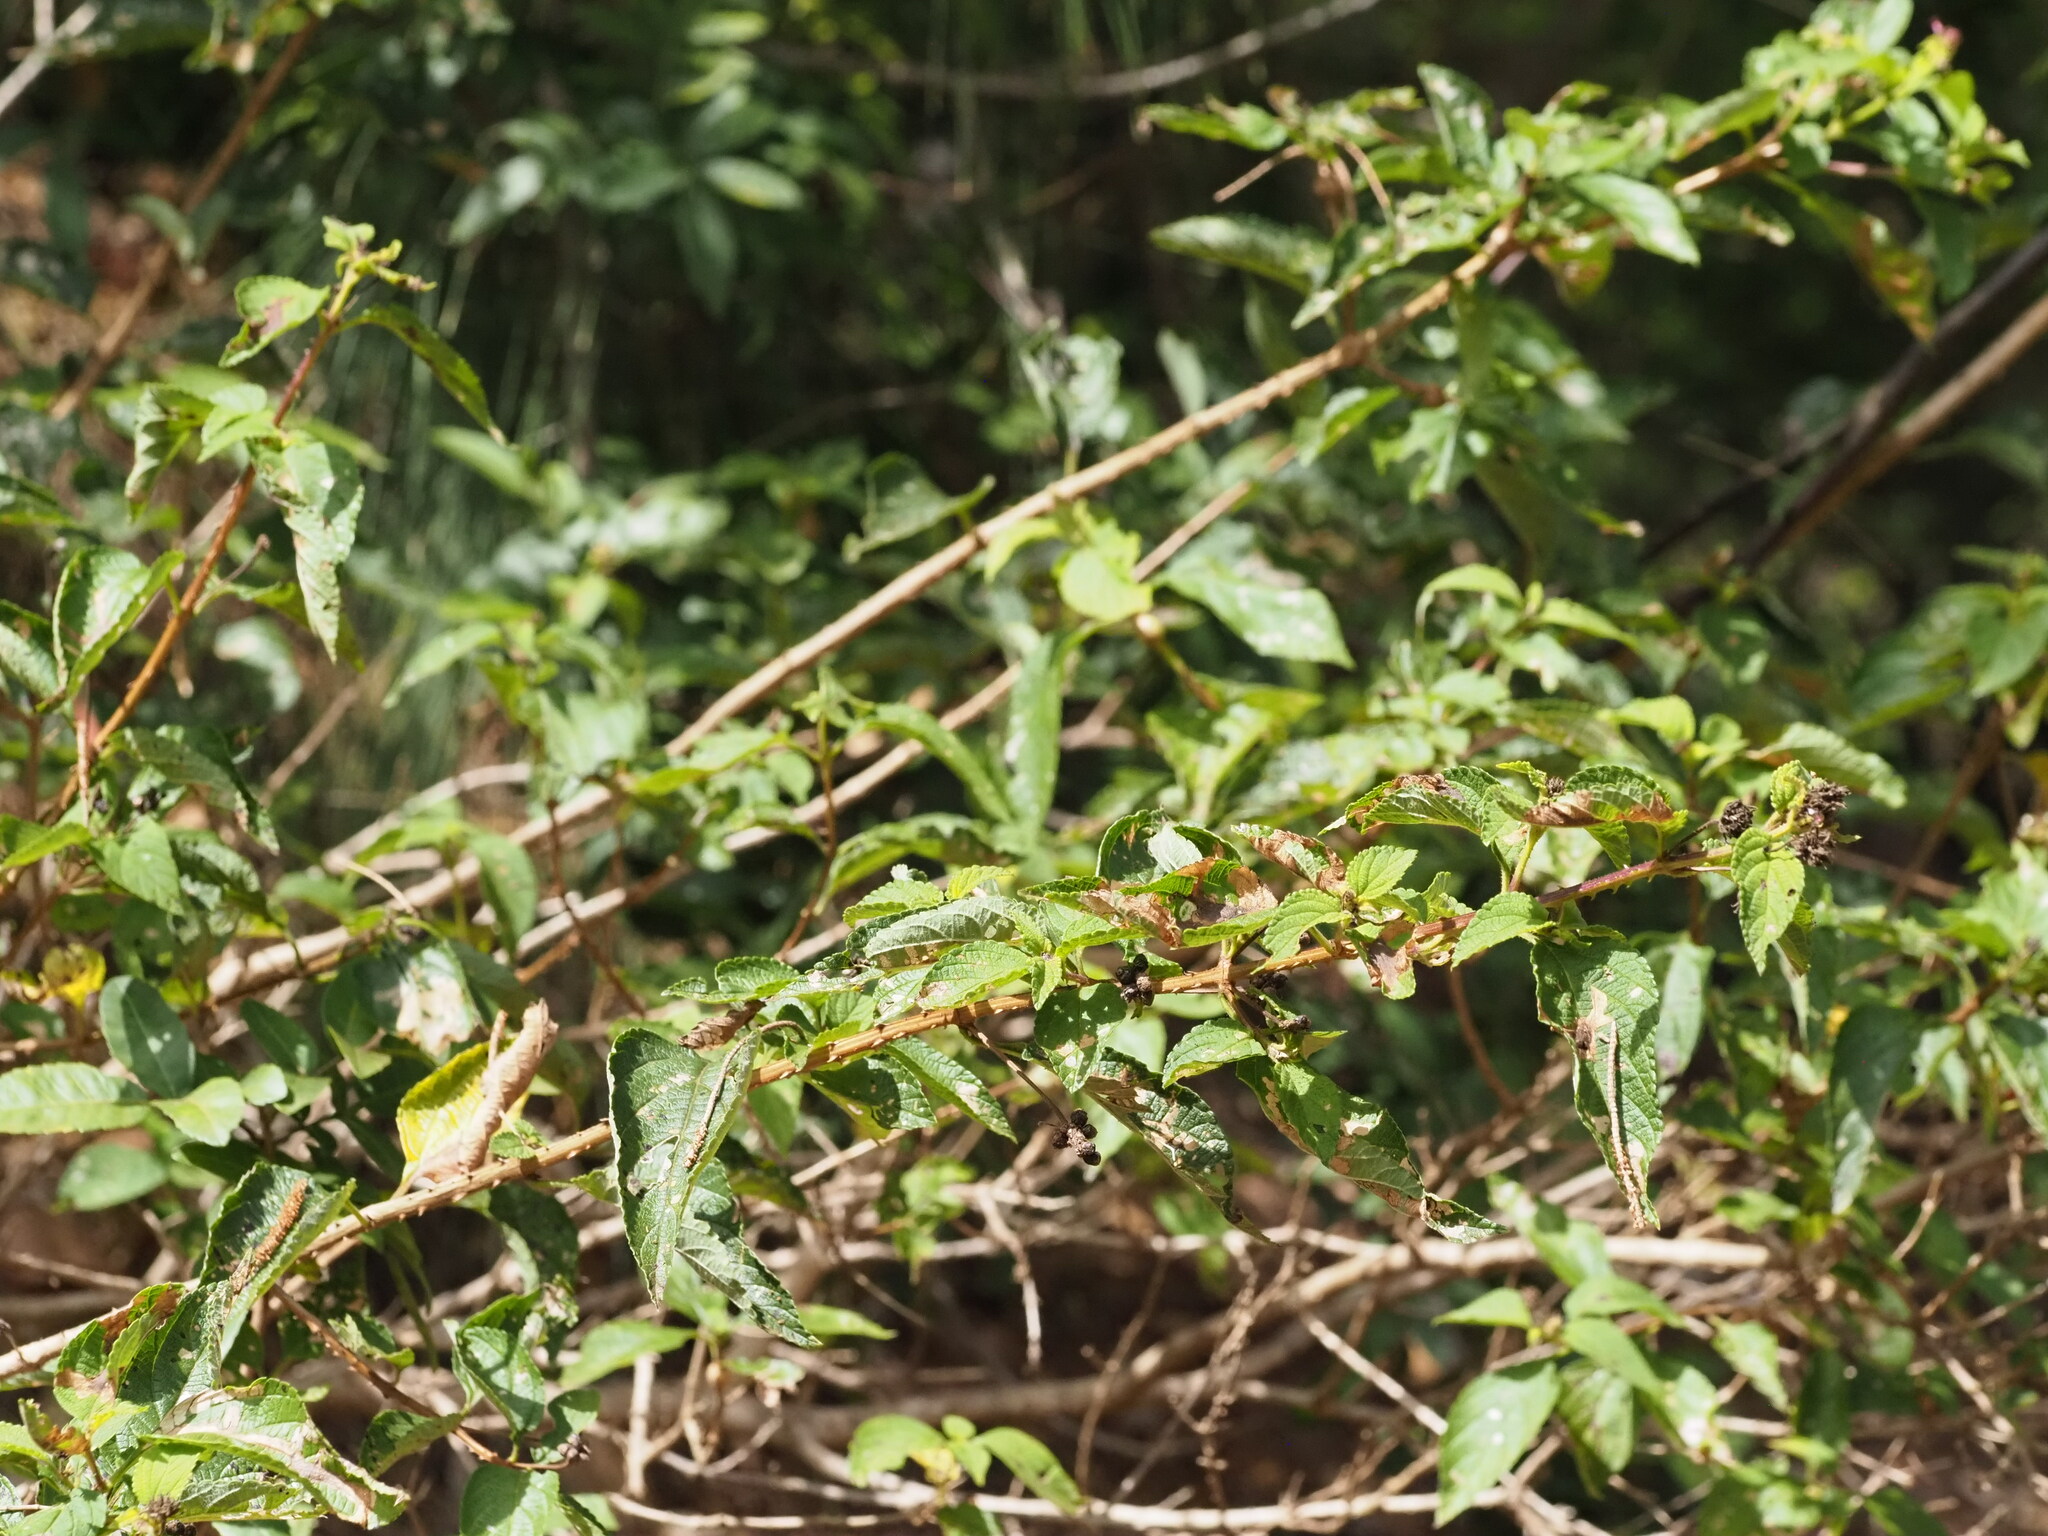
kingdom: Plantae
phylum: Tracheophyta
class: Magnoliopsida
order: Lamiales
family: Verbenaceae
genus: Lantana
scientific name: Lantana camara
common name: Lantana
